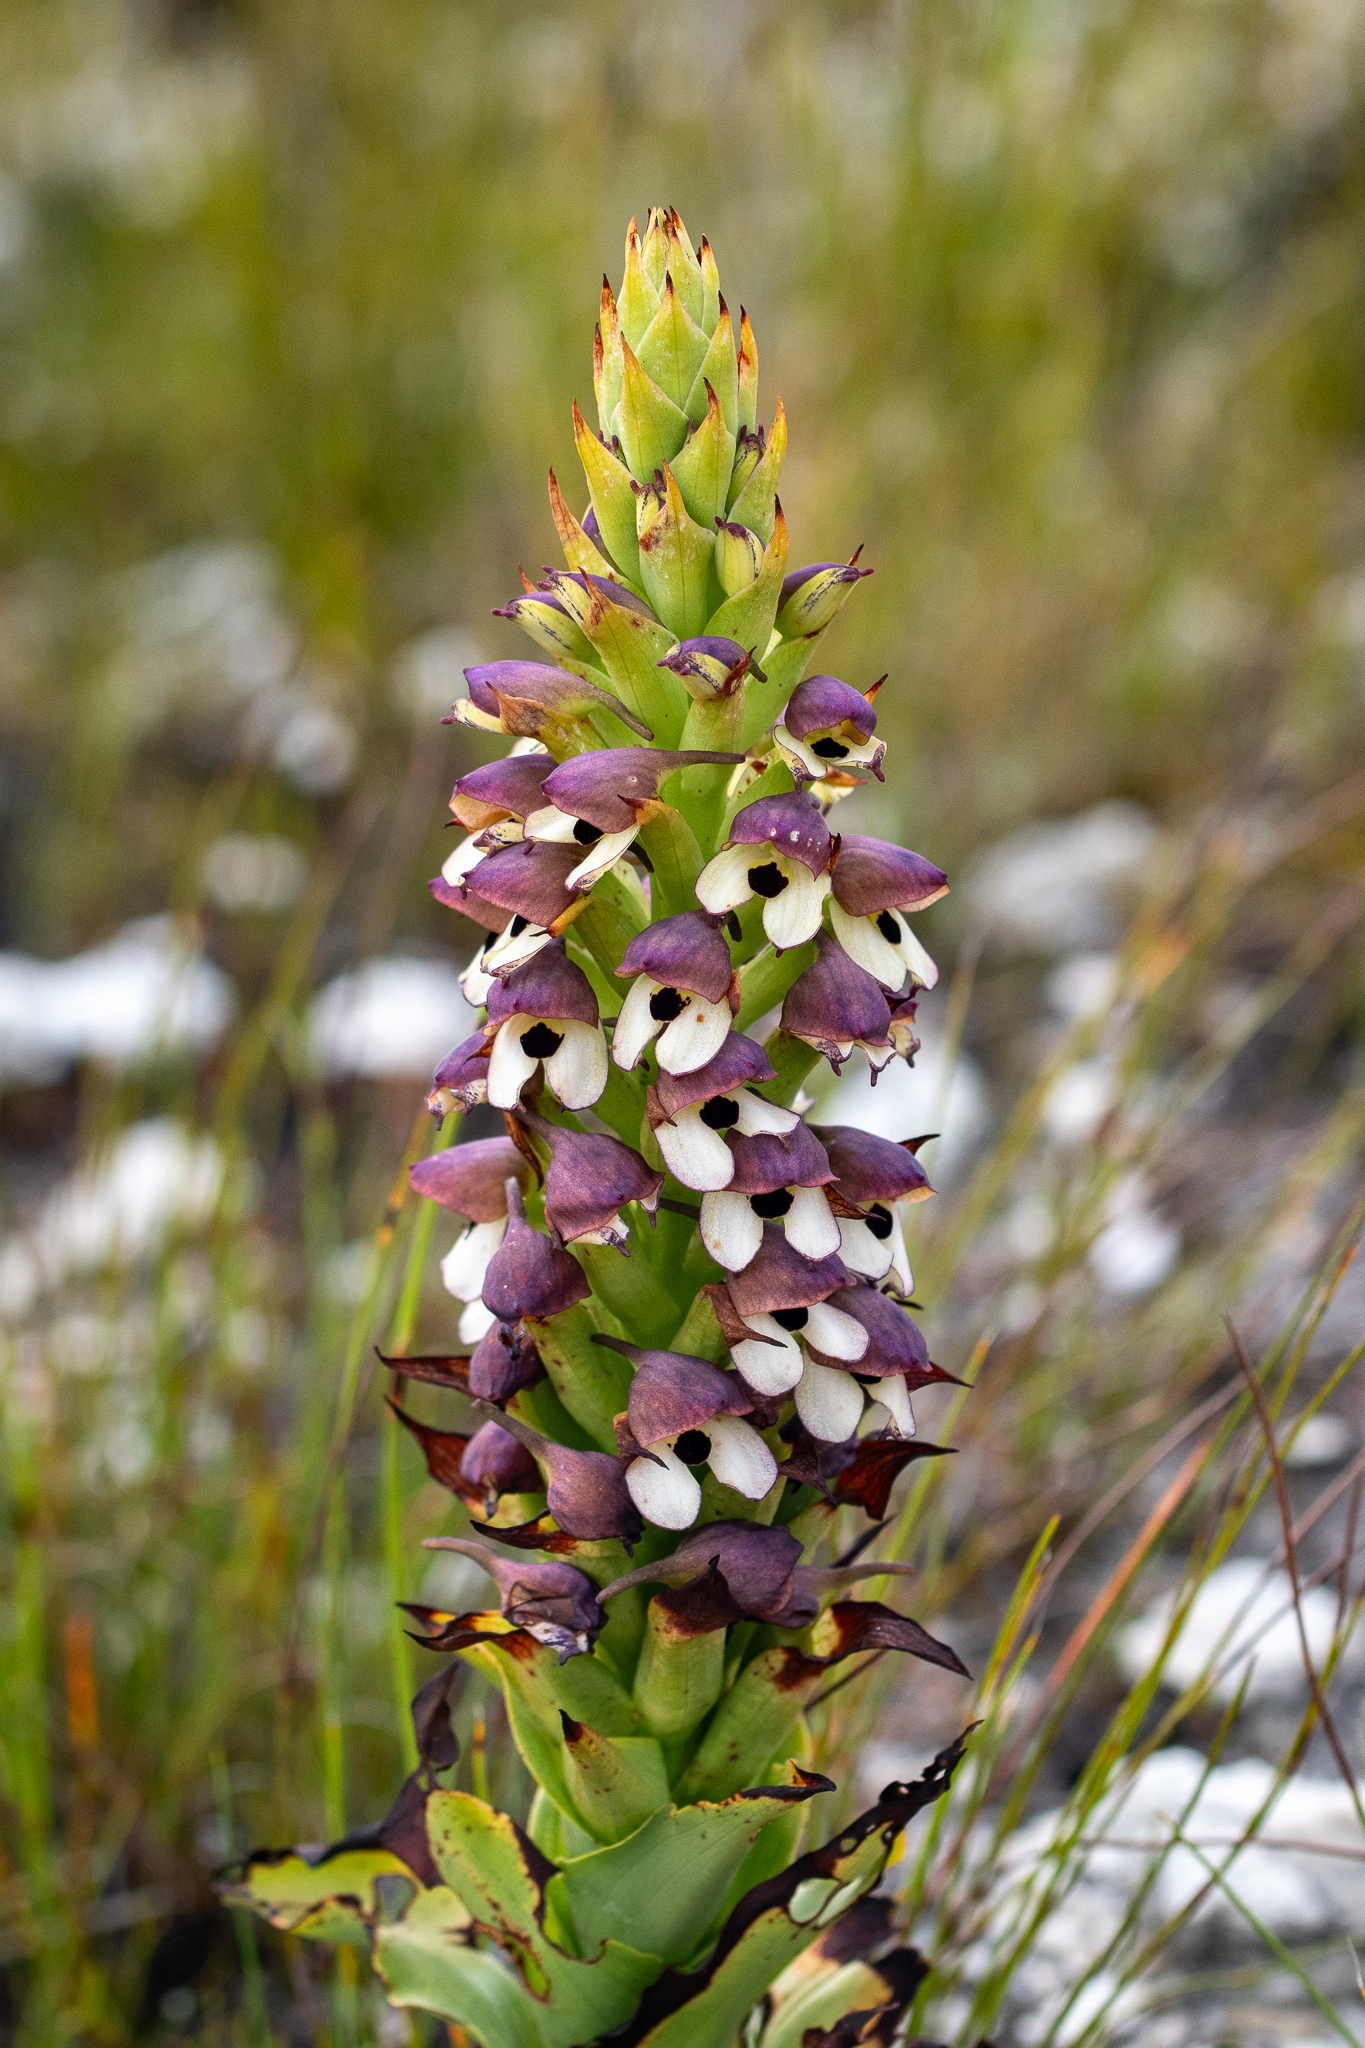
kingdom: Plantae
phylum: Tracheophyta
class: Liliopsida
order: Asparagales
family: Orchidaceae
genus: Disa
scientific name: Disa cornuta
